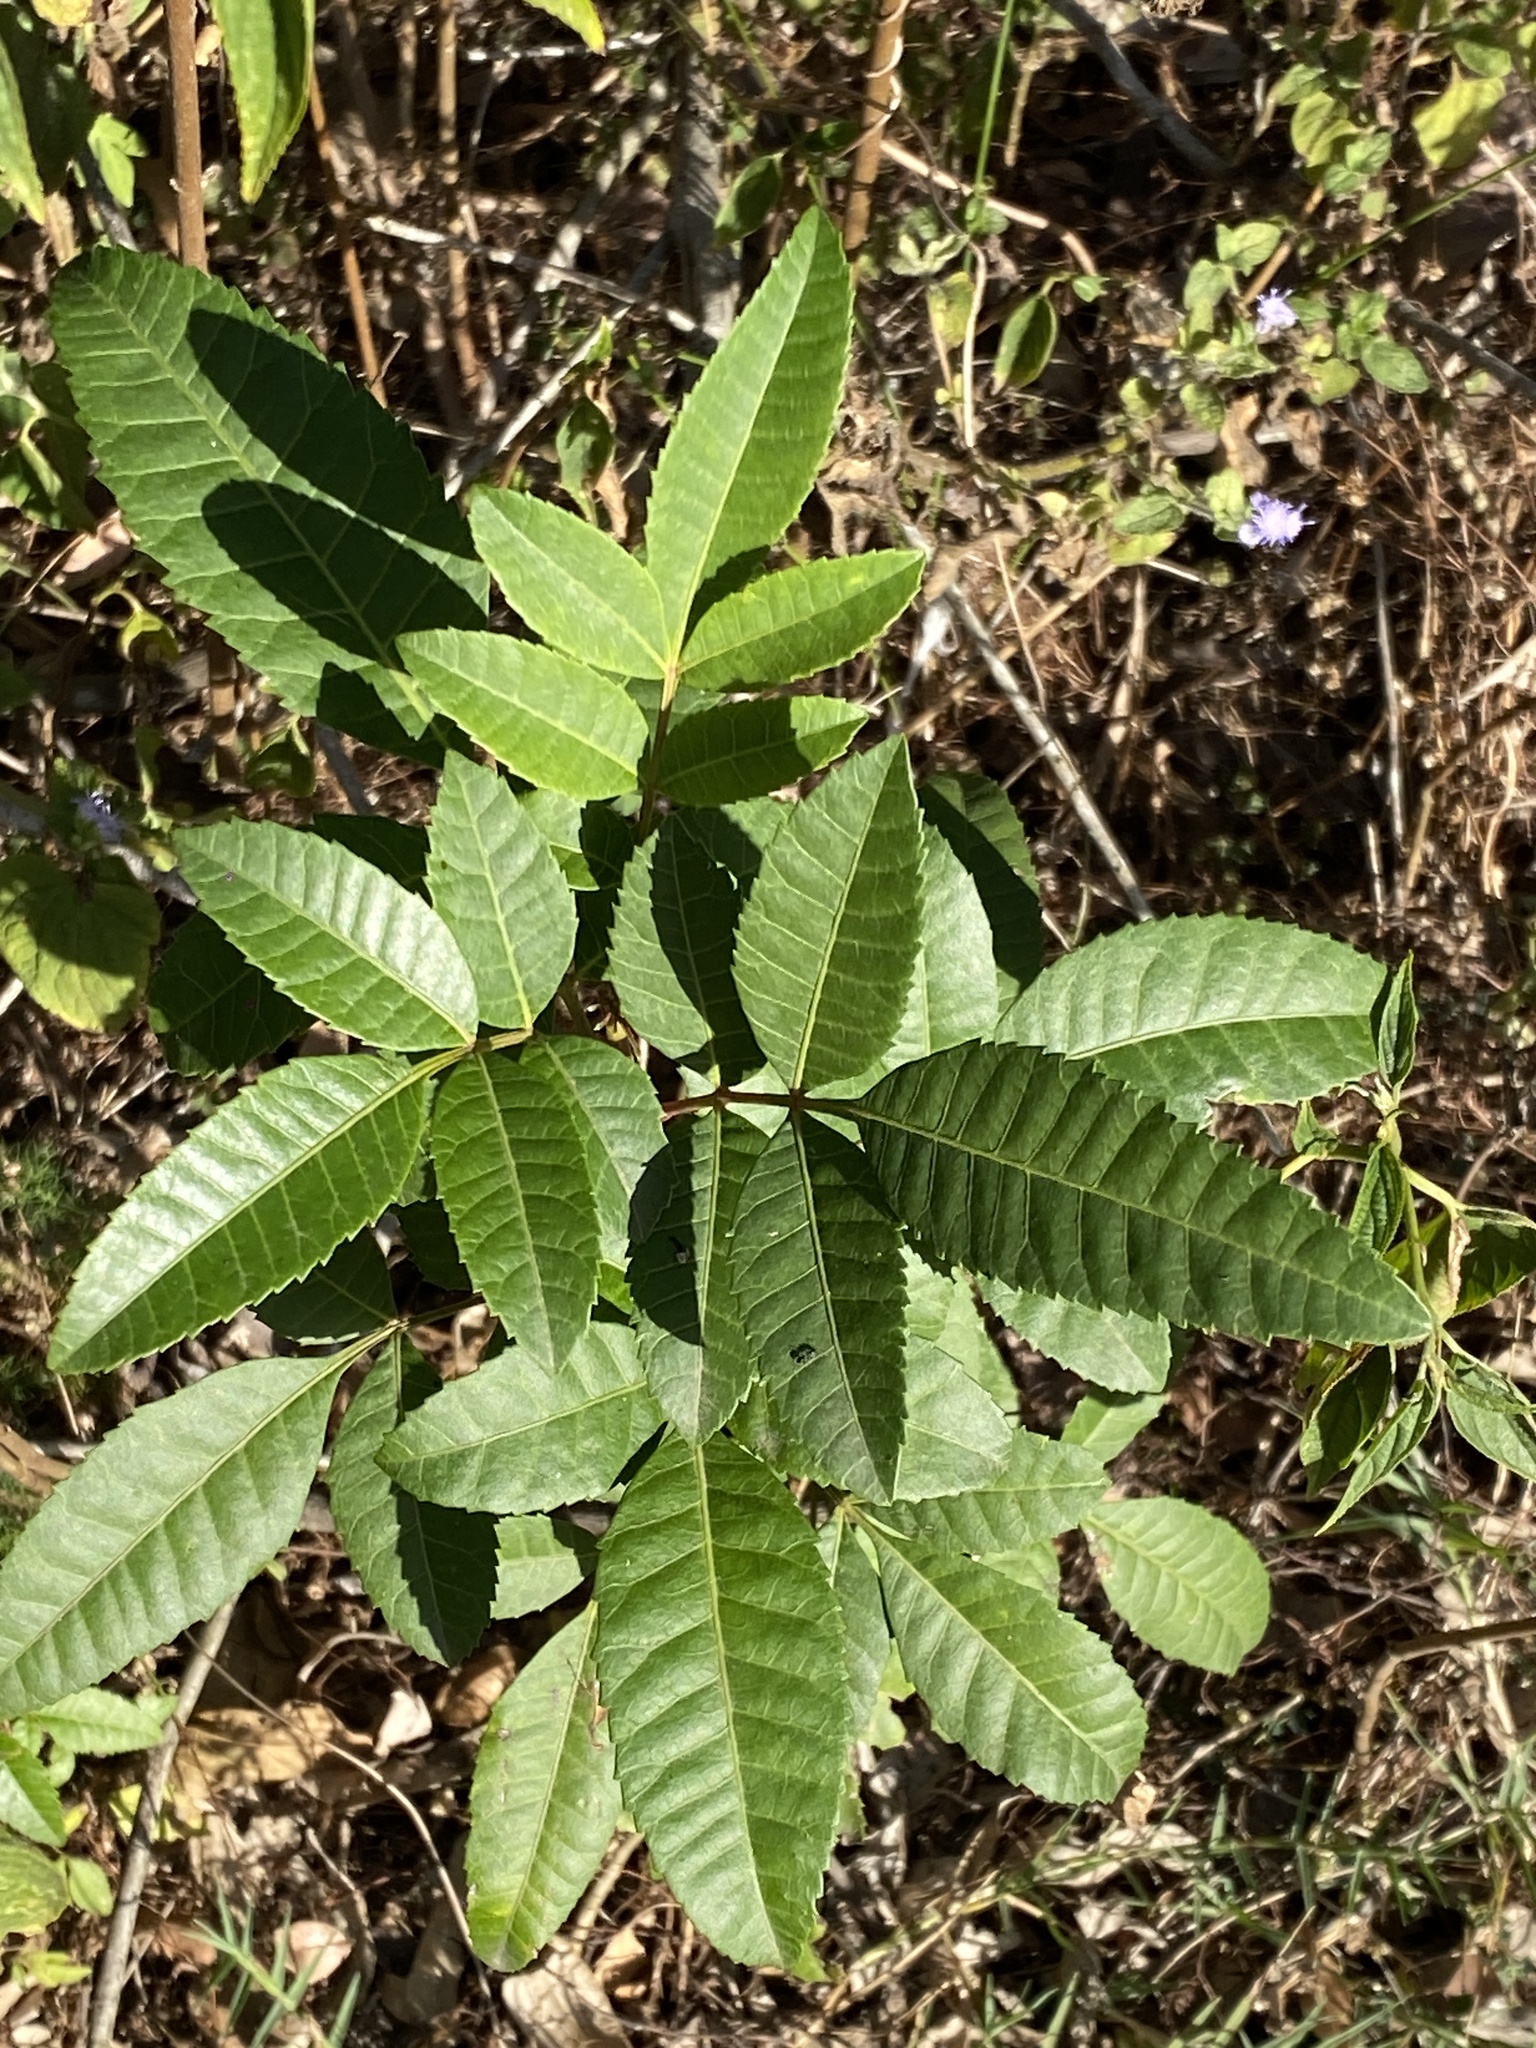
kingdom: Plantae
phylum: Tracheophyta
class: Magnoliopsida
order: Sapindales
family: Anacardiaceae
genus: Schinus
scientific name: Schinus terebinthifolia
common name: Brazilian peppertree
